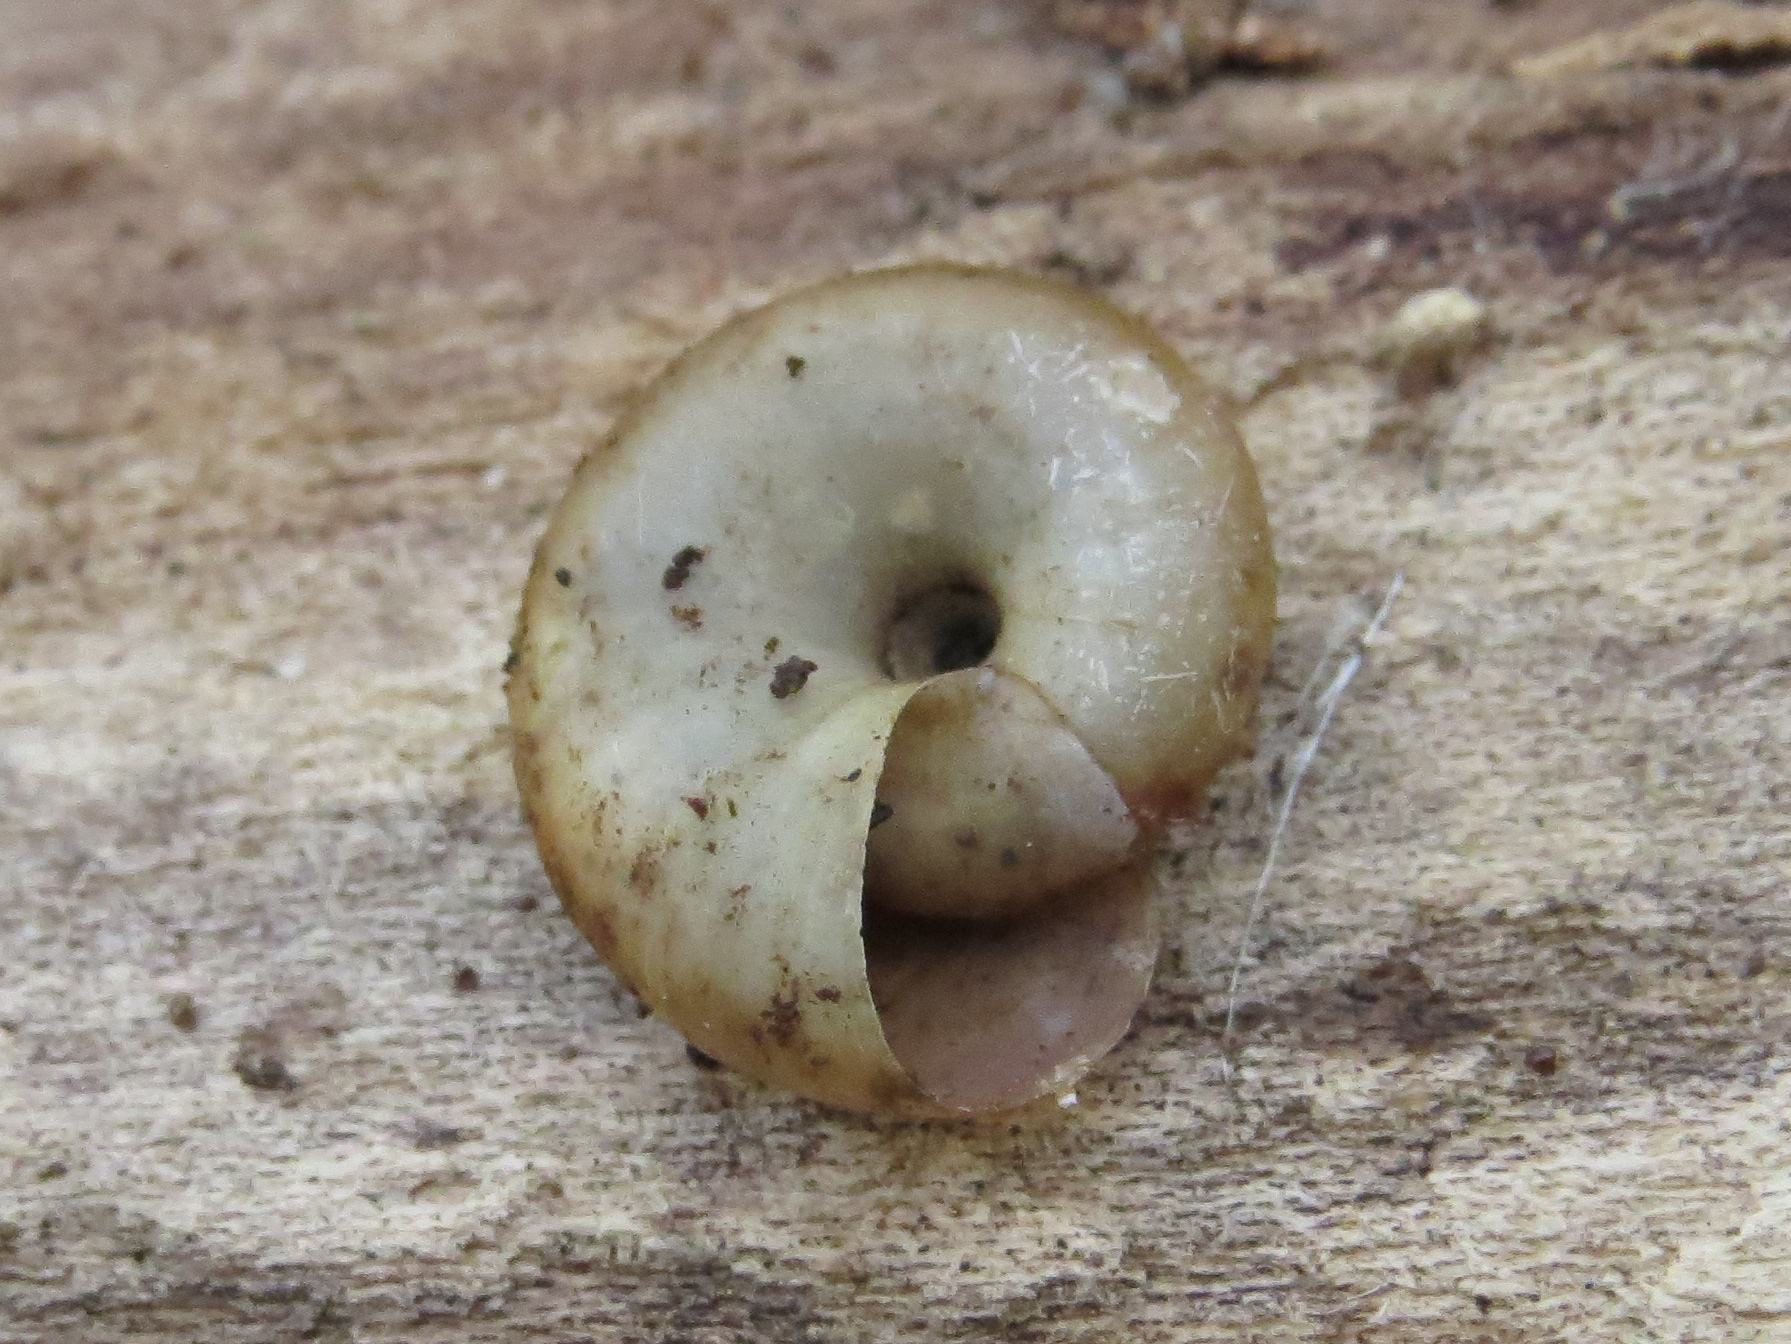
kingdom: Animalia
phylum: Mollusca
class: Gastropoda
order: Stylommatophora
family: Haplotrematidae
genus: Haplotrema
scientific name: Haplotrema concavum
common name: Gray-foot lancetooth
